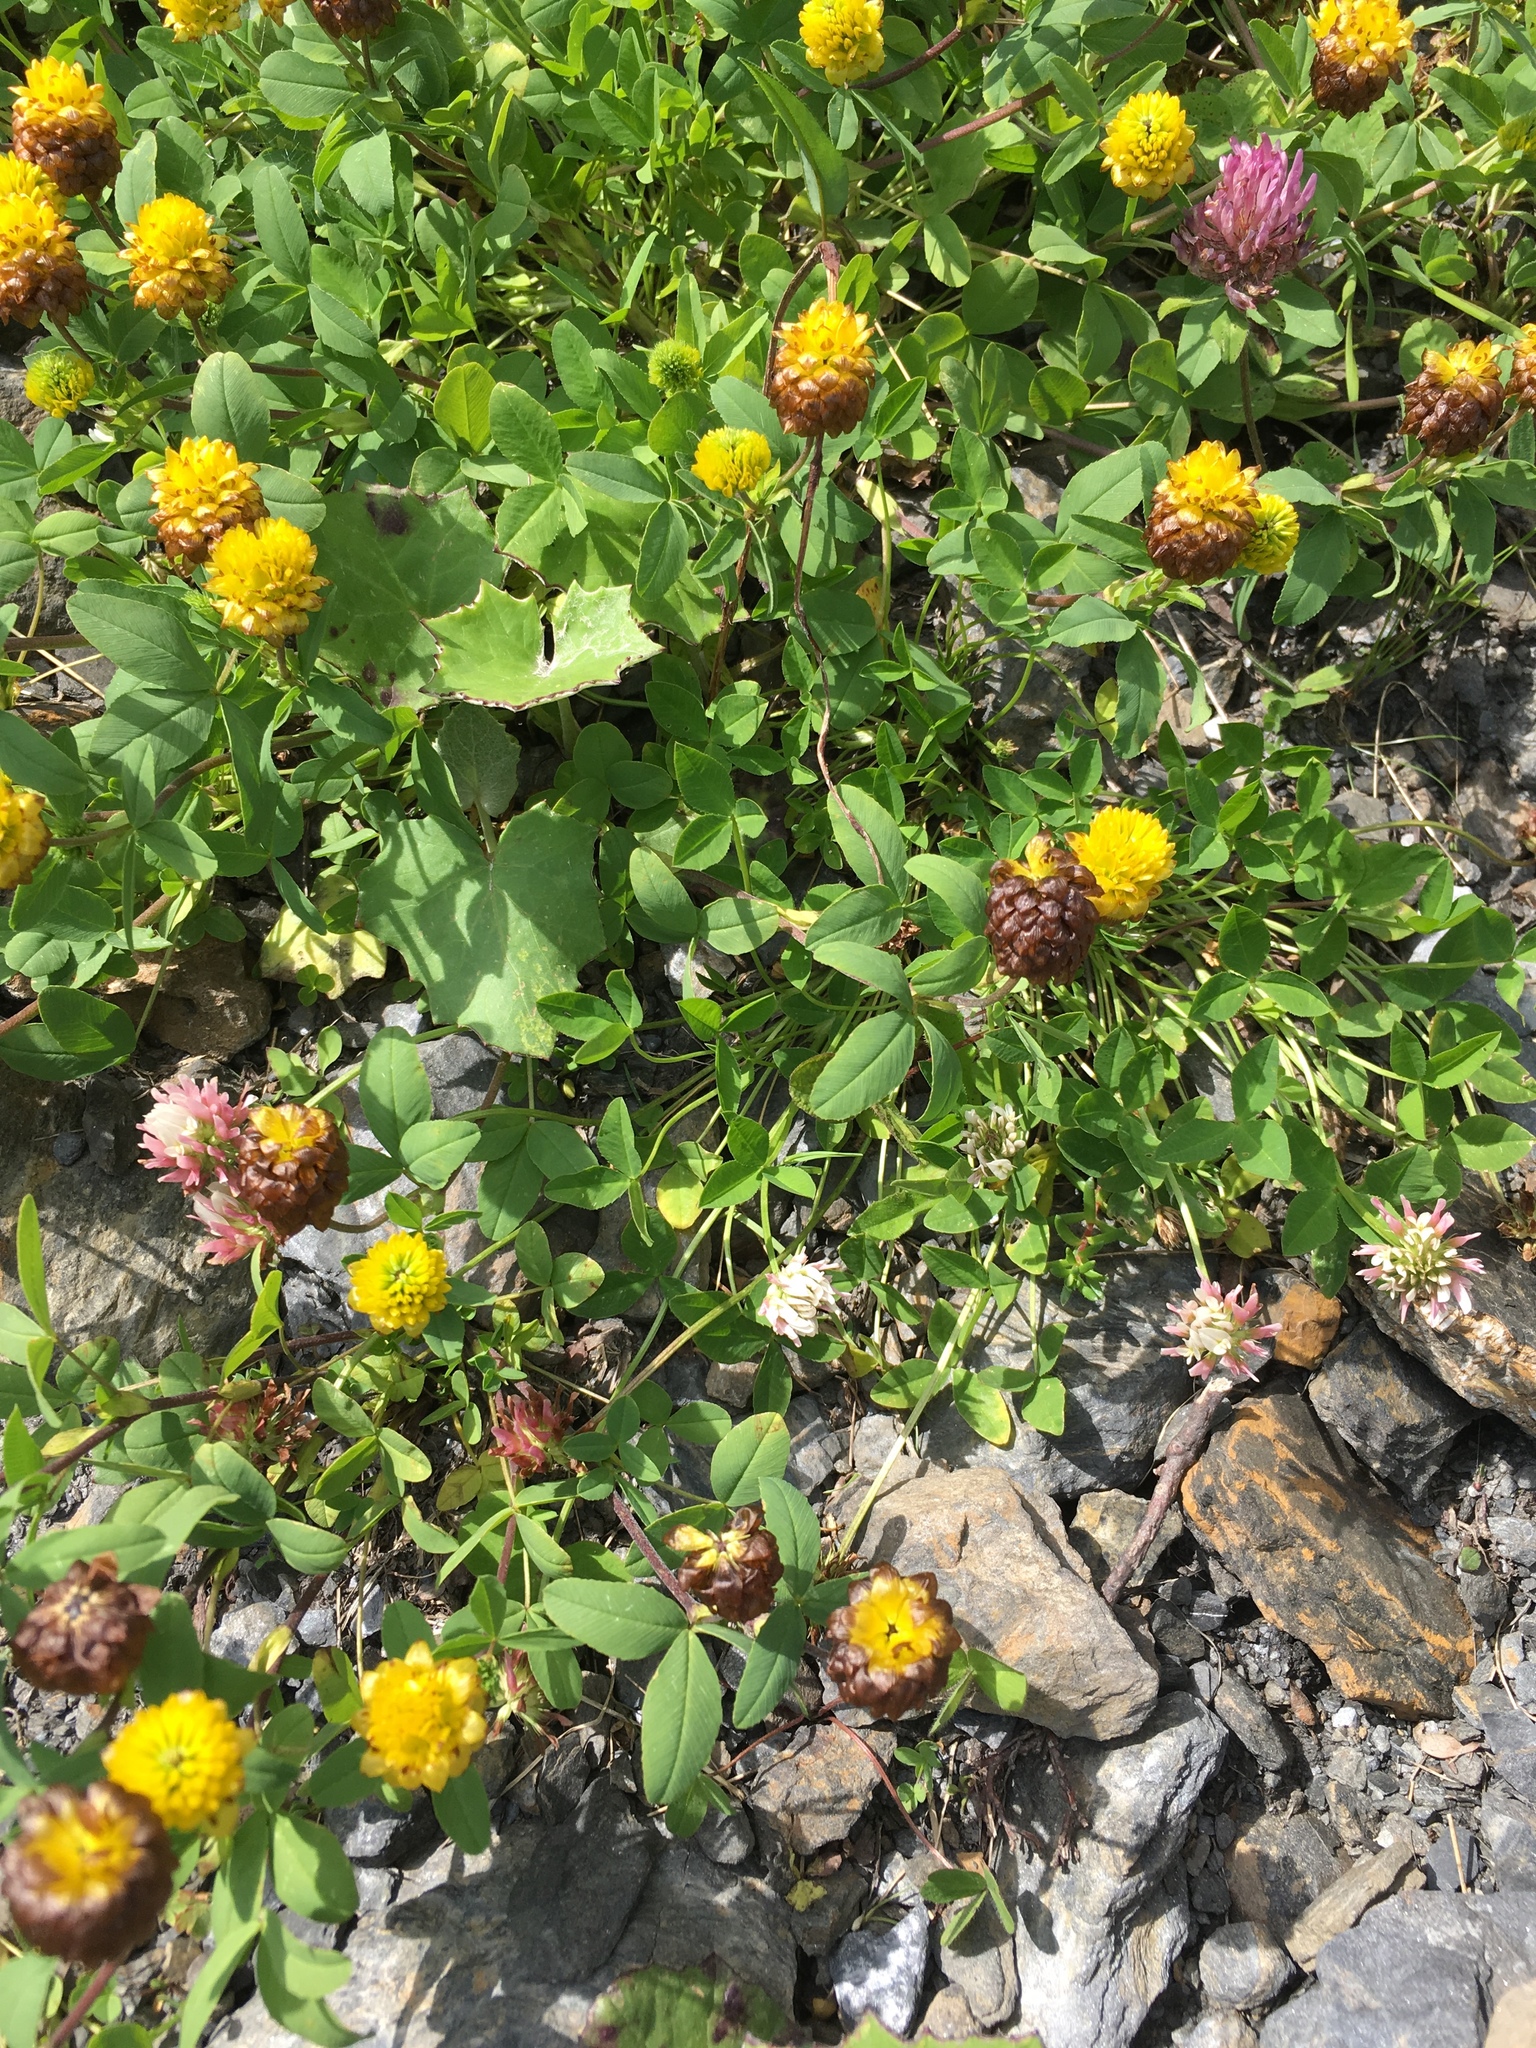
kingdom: Plantae
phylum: Tracheophyta
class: Magnoliopsida
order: Fabales
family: Fabaceae
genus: Trifolium
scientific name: Trifolium badium
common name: Brown clover
